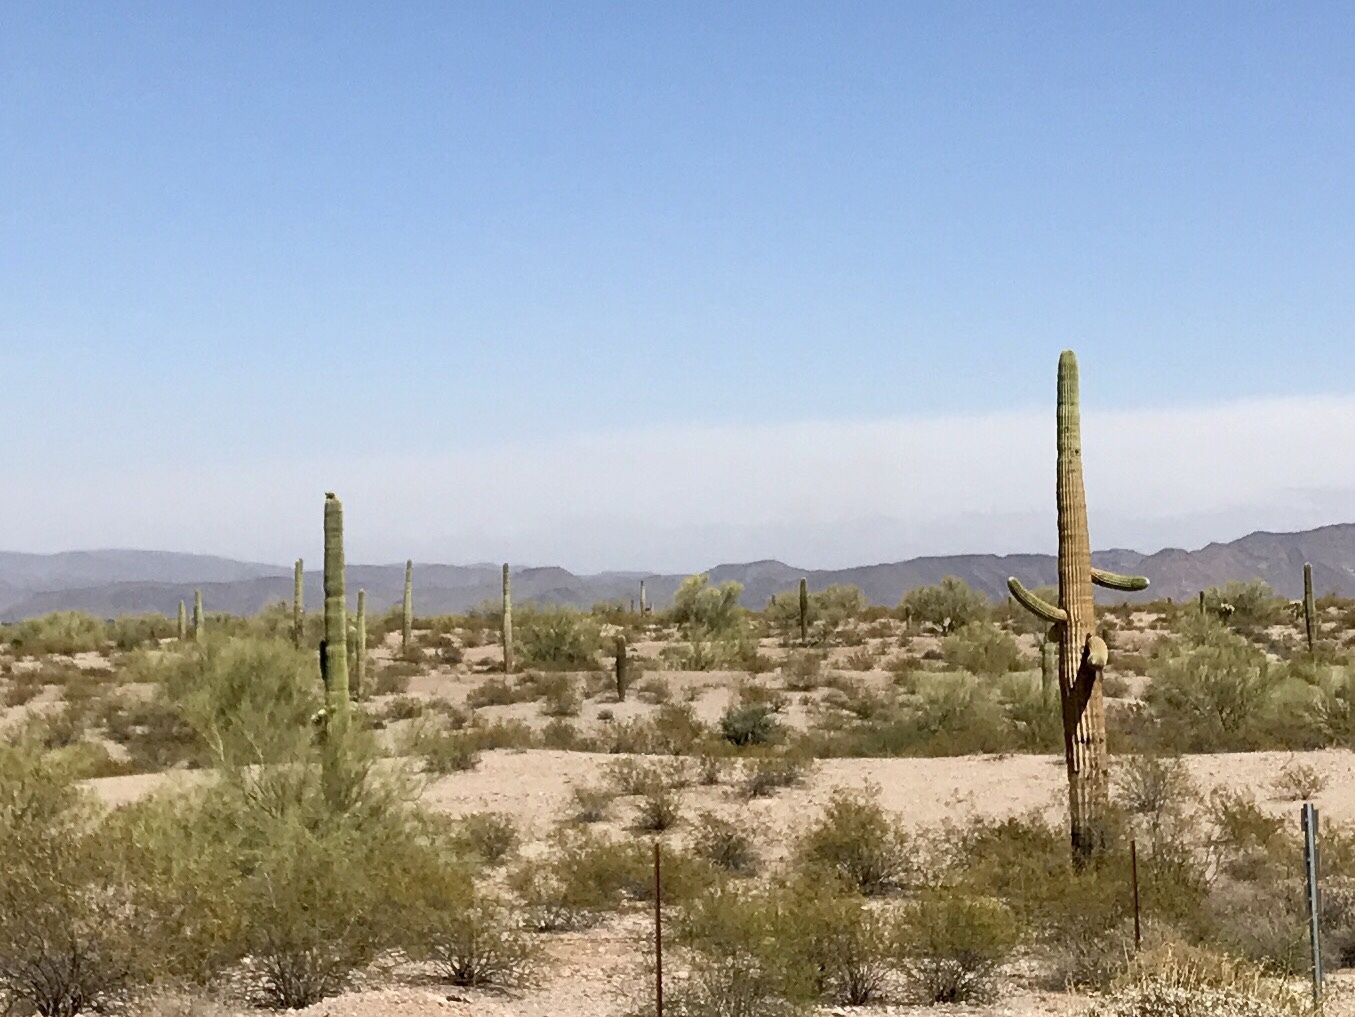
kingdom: Plantae
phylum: Tracheophyta
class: Magnoliopsida
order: Caryophyllales
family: Cactaceae
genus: Carnegiea
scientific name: Carnegiea gigantea
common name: Saguaro
